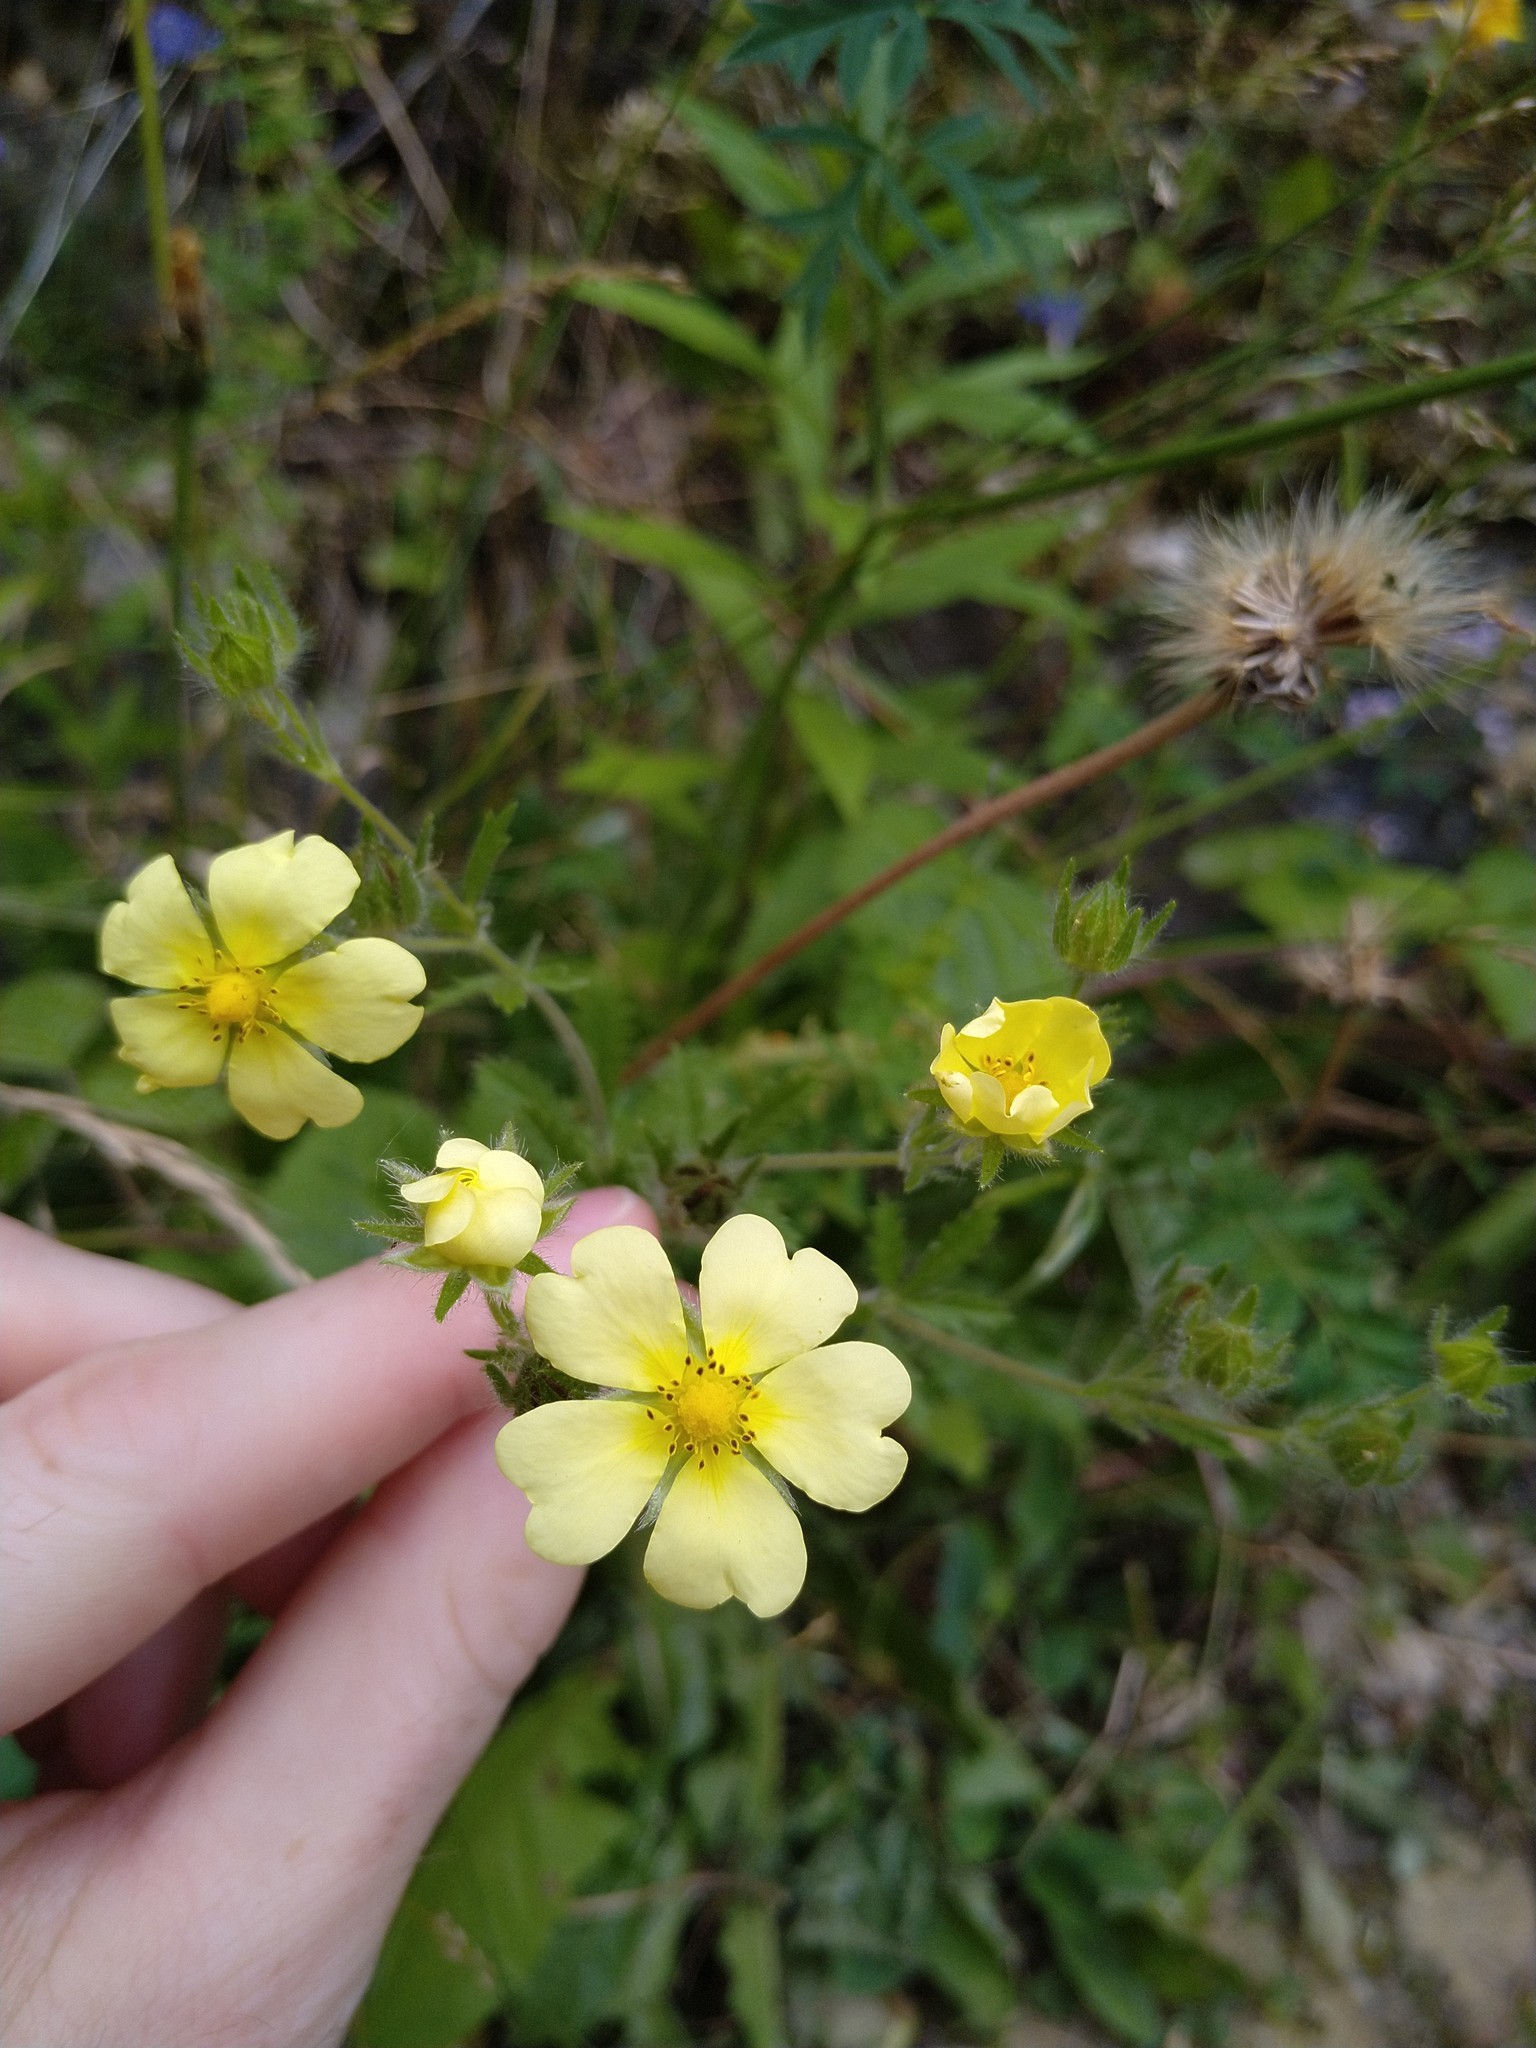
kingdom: Plantae
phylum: Tracheophyta
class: Magnoliopsida
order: Rosales
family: Rosaceae
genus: Potentilla
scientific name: Potentilla recta
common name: Sulphur cinquefoil
